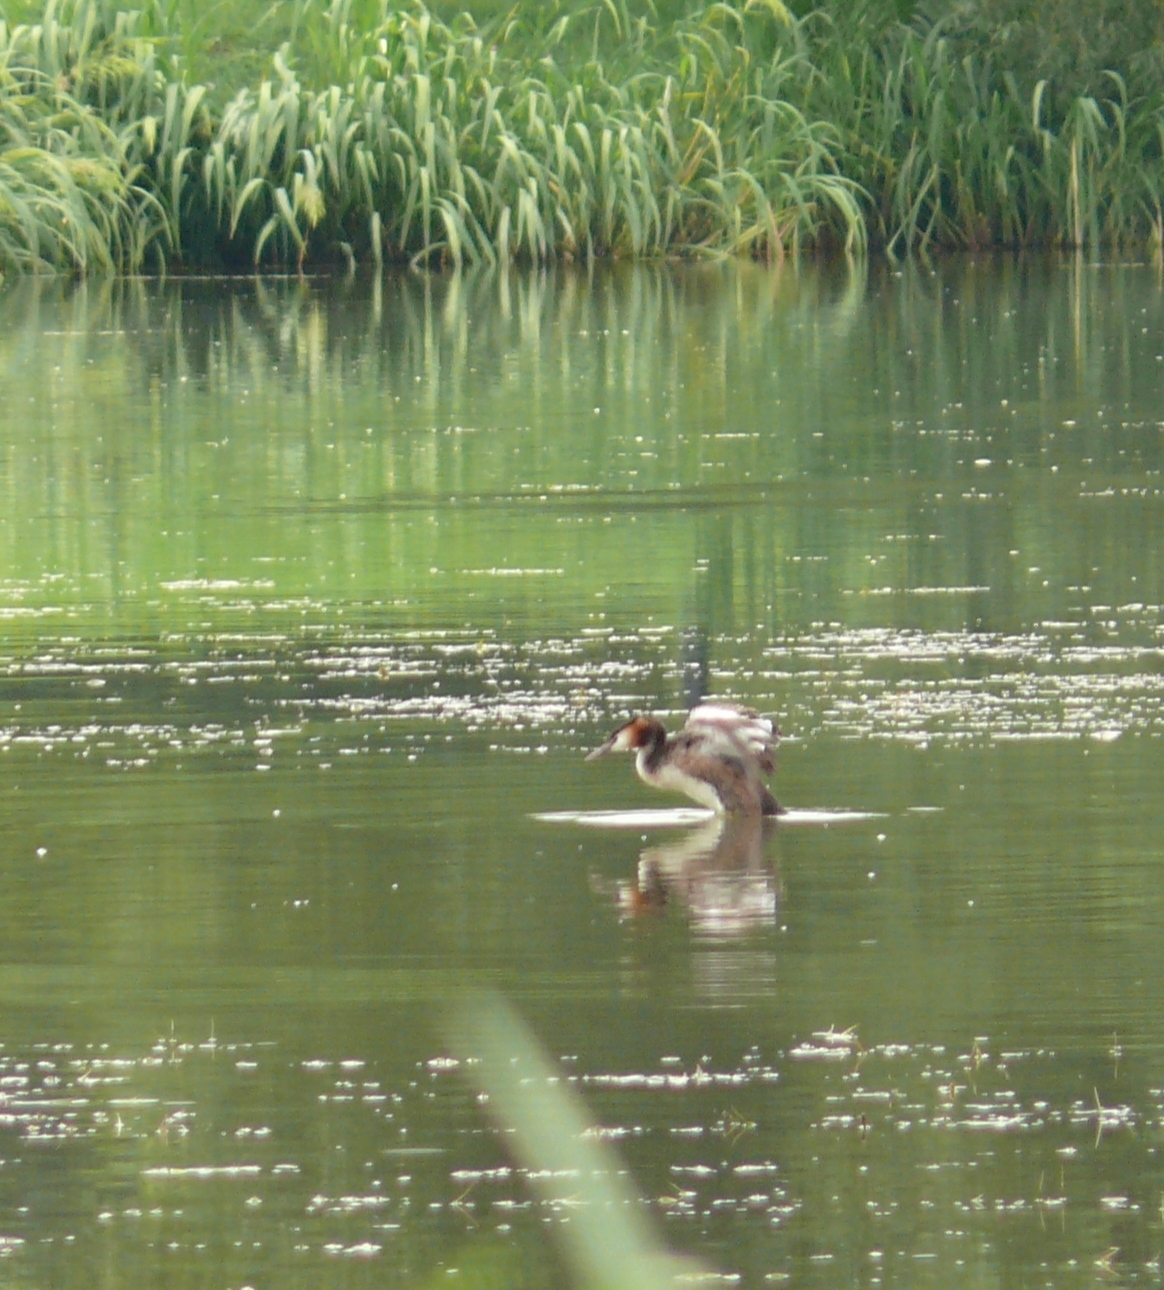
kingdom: Animalia
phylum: Chordata
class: Aves
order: Podicipediformes
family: Podicipedidae
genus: Podiceps
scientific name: Podiceps cristatus
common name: Great crested grebe
